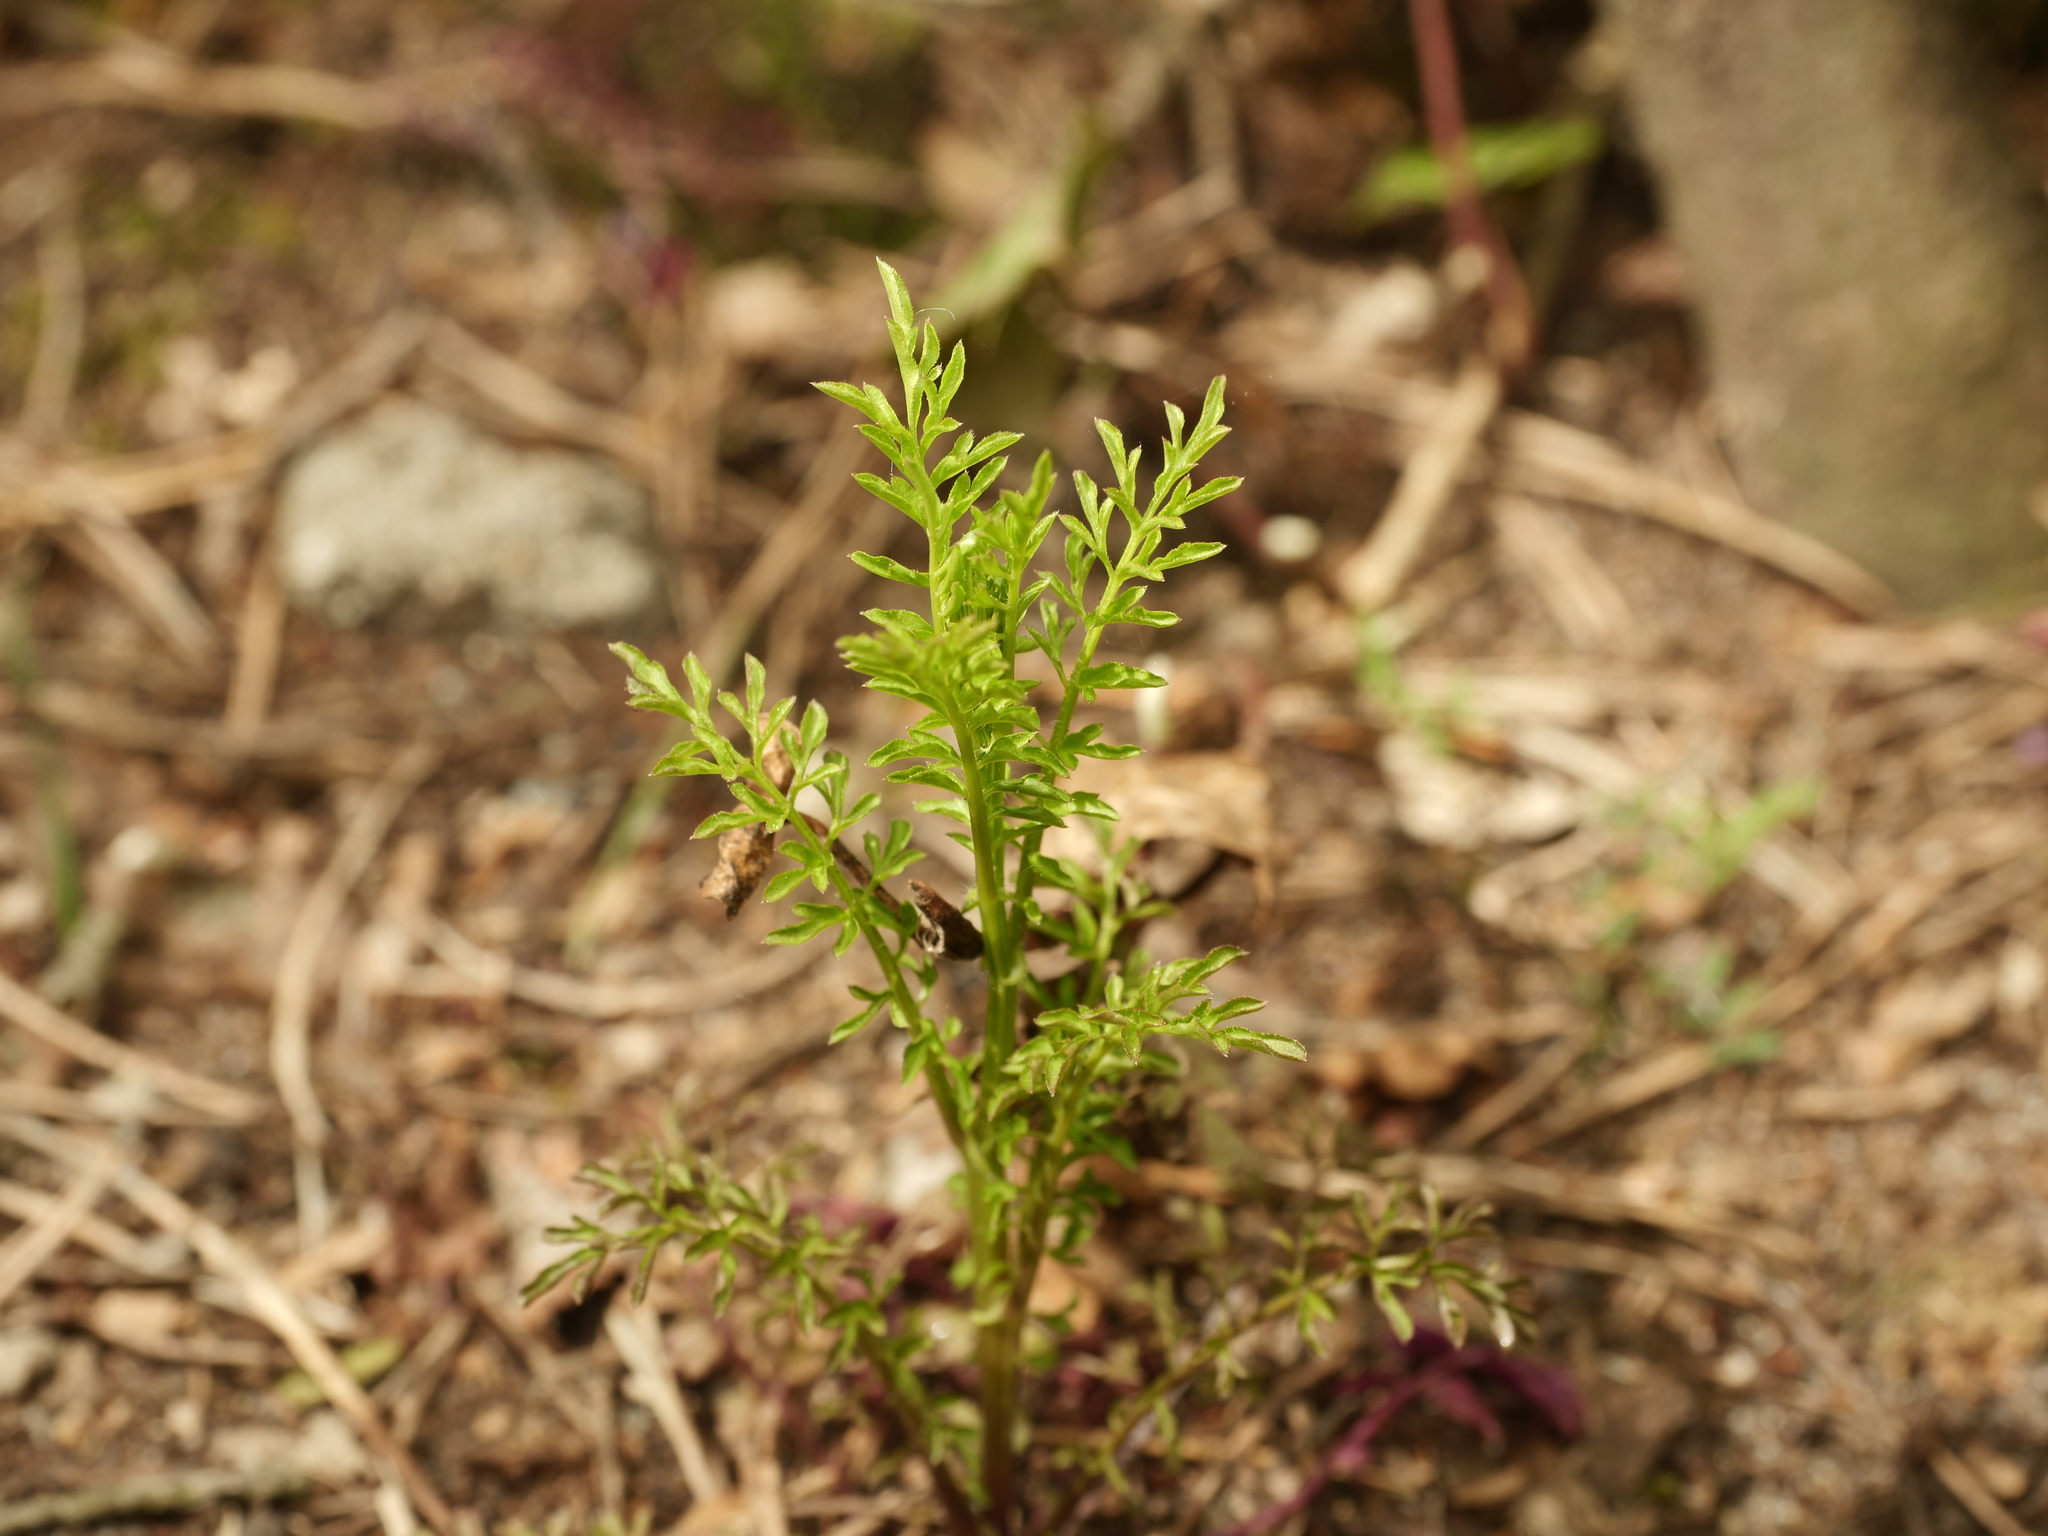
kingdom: Plantae
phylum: Tracheophyta
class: Magnoliopsida
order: Brassicales
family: Brassicaceae
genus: Cardamine
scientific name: Cardamine impatiens
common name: Narrow-leaved bitter-cress
